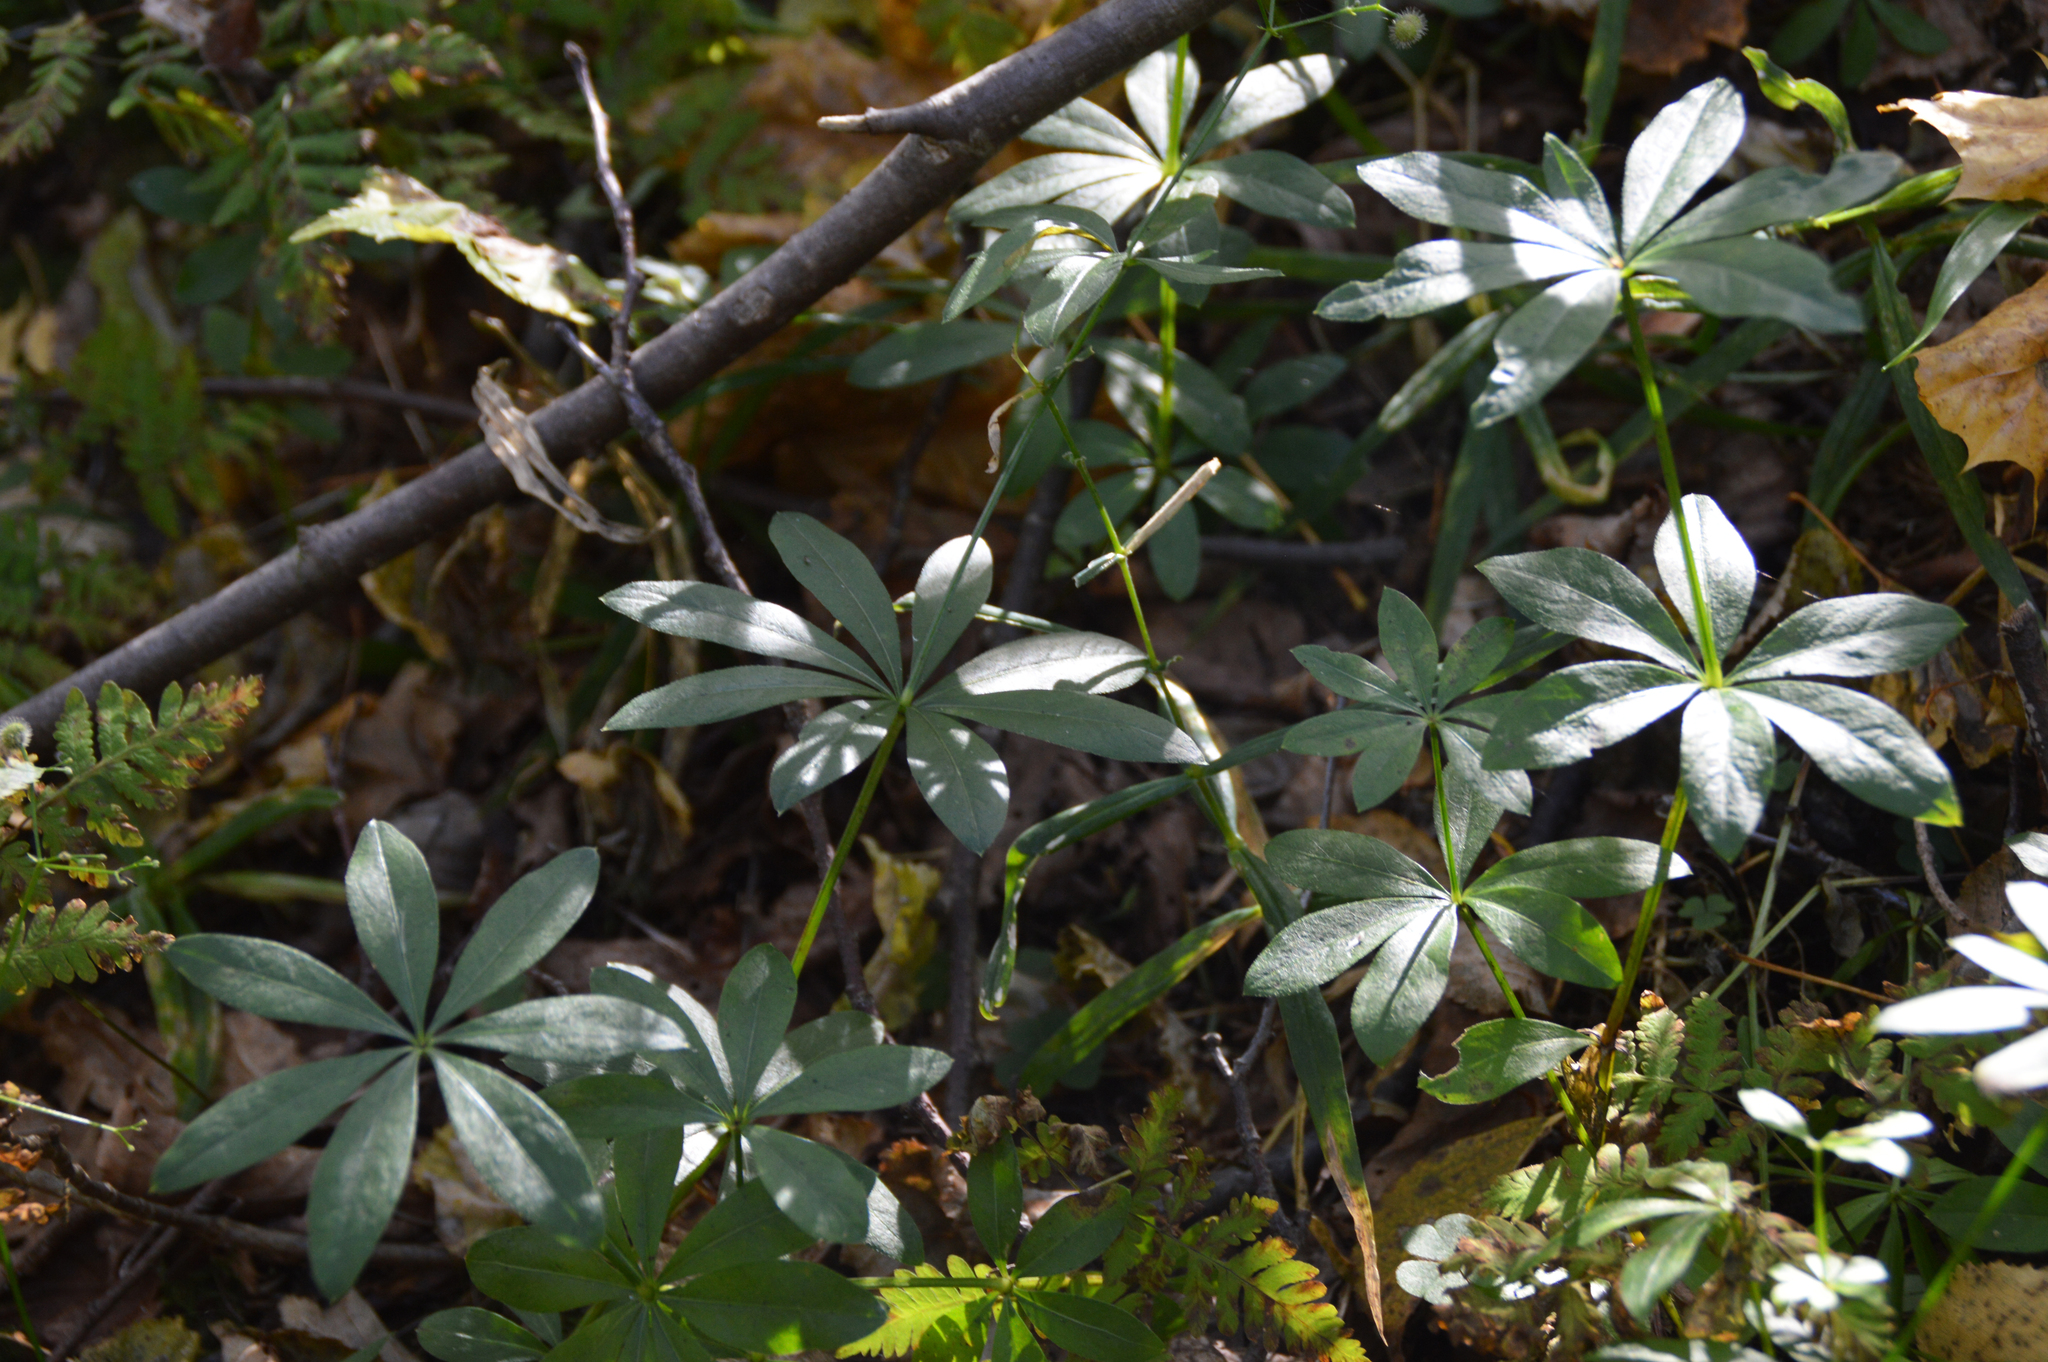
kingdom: Plantae
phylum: Tracheophyta
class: Magnoliopsida
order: Gentianales
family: Rubiaceae
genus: Galium
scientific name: Galium odoratum
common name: Sweet woodruff
